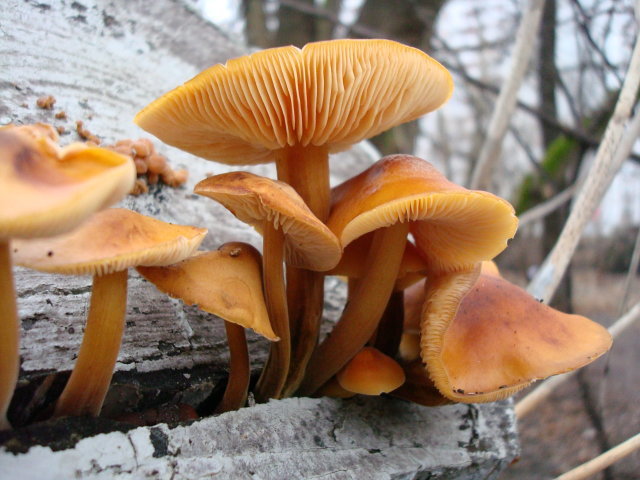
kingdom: Fungi
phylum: Basidiomycota
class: Agaricomycetes
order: Agaricales
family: Physalacriaceae
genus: Flammulina
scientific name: Flammulina
